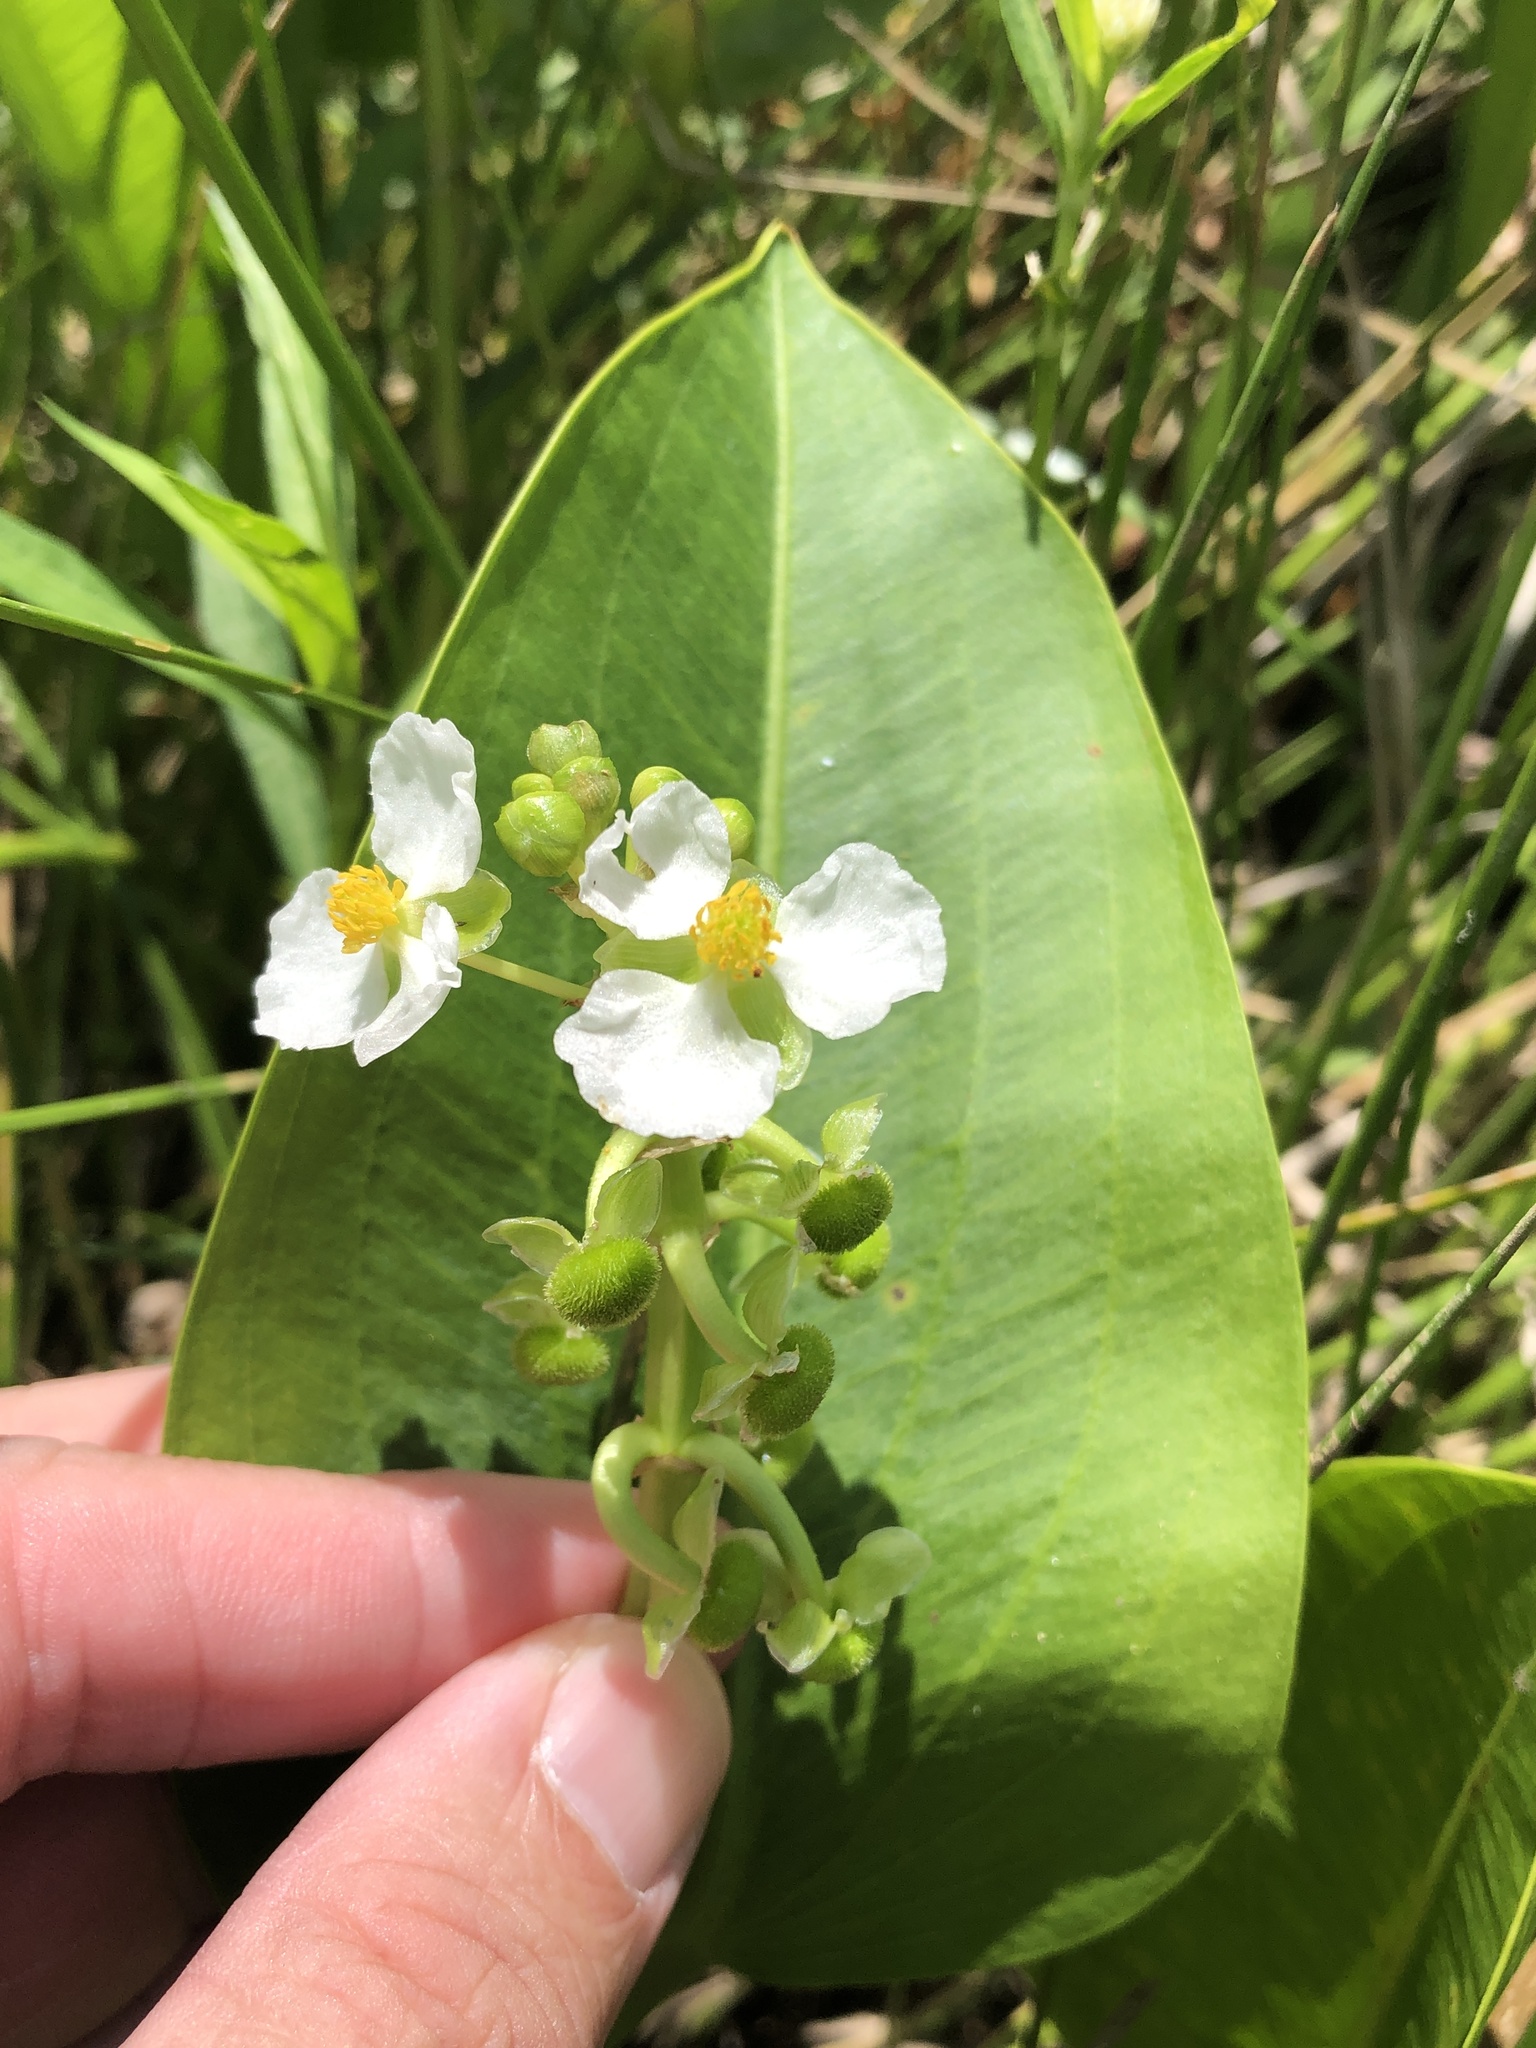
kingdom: Plantae
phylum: Tracheophyta
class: Liliopsida
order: Alismatales
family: Alismataceae
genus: Sagittaria
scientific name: Sagittaria platyphylla
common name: Broad-leaf arrowhead
